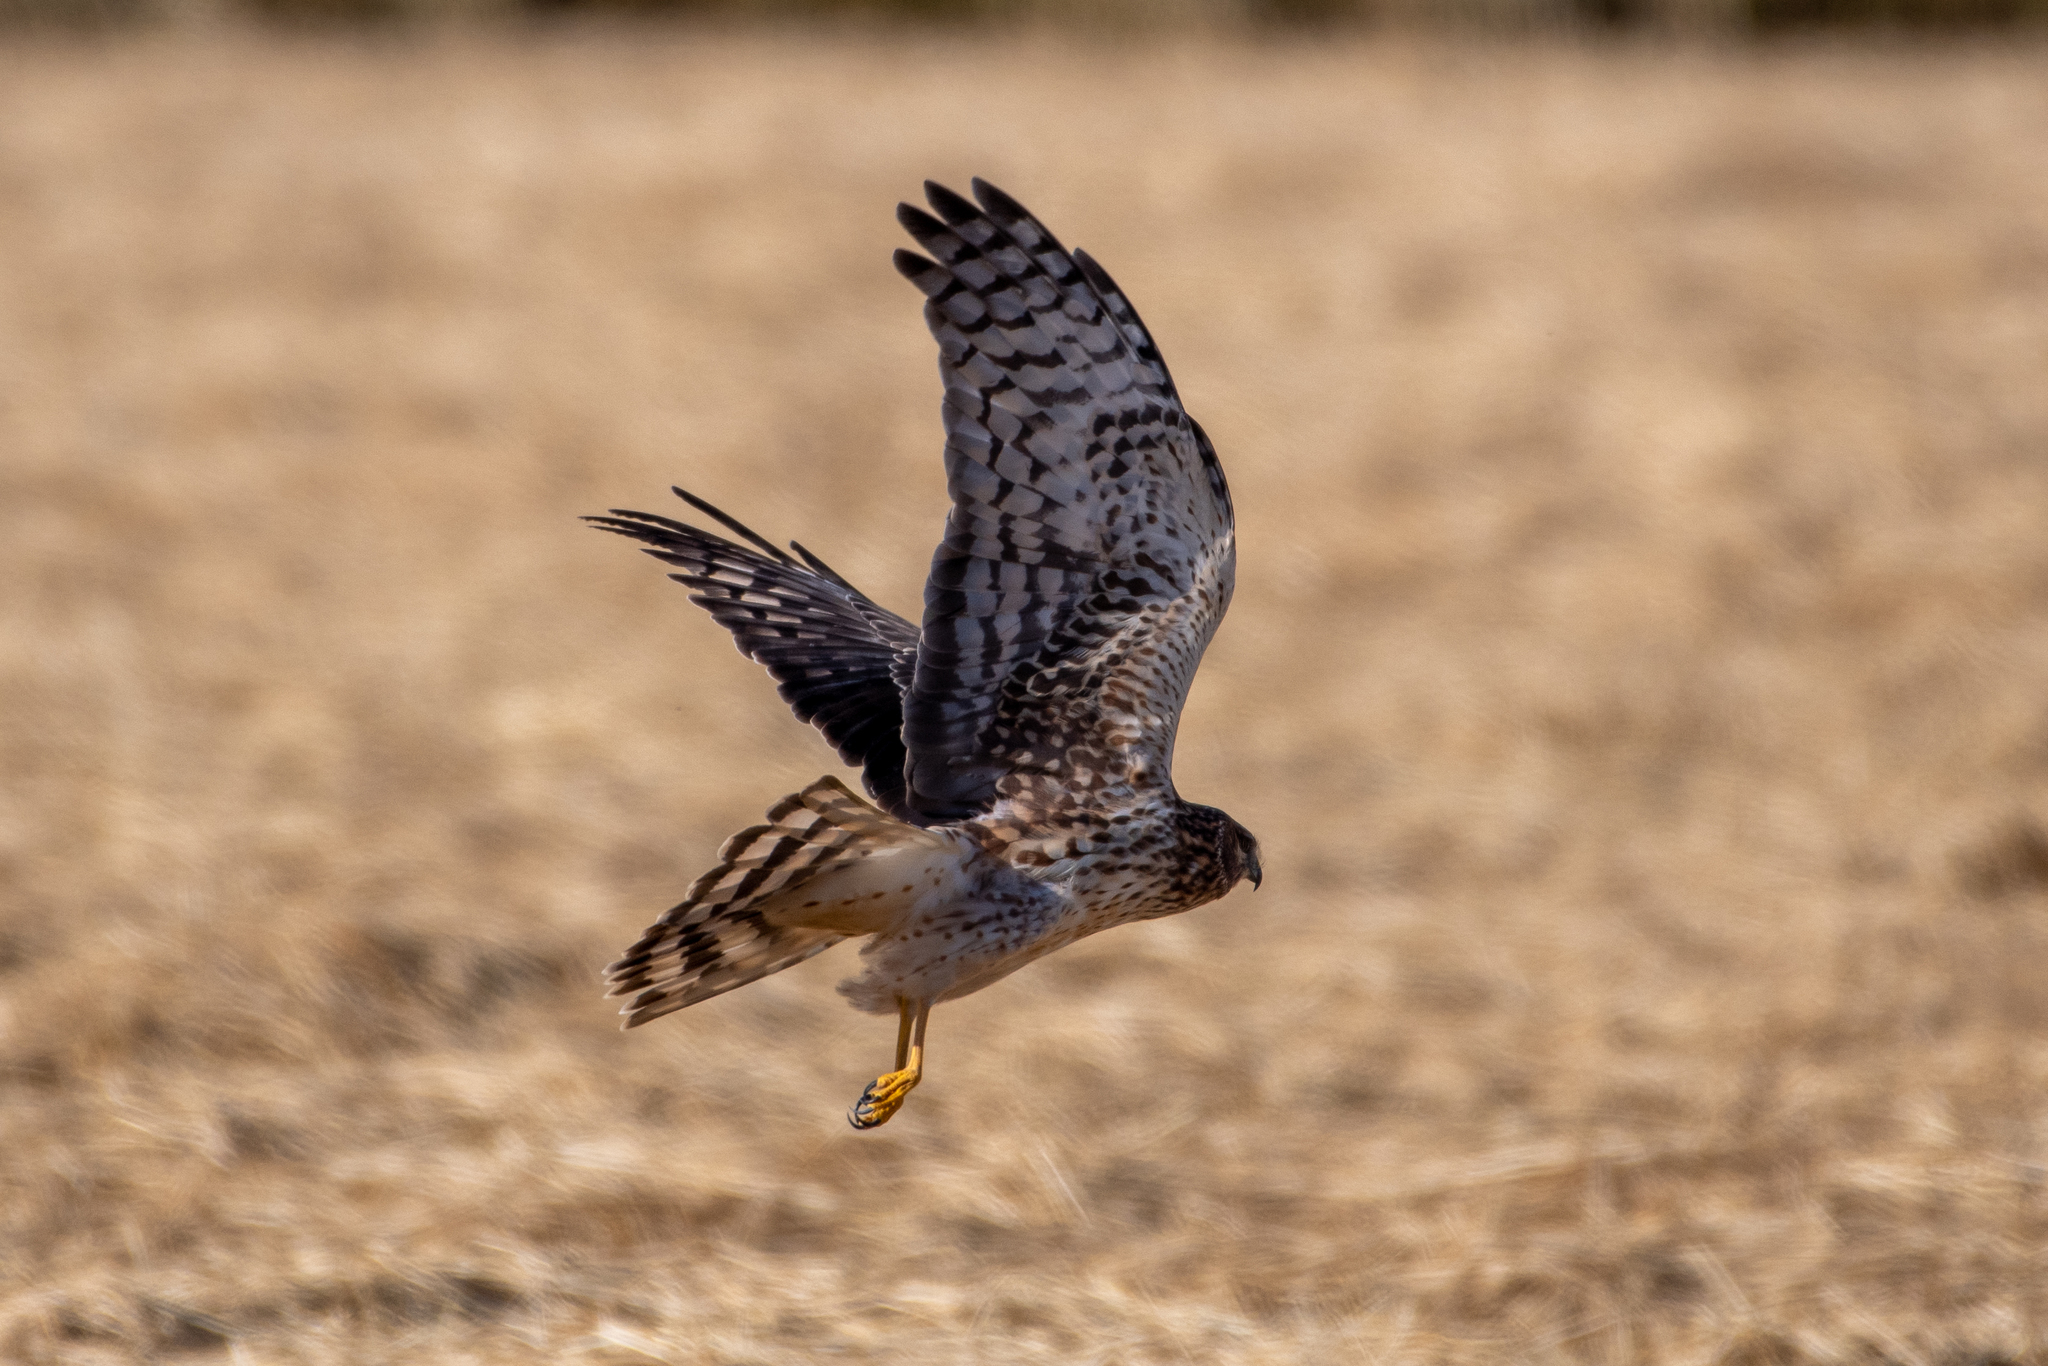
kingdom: Animalia
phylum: Chordata
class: Aves
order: Accipitriformes
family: Accipitridae
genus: Circus
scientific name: Circus cyaneus
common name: Hen harrier
